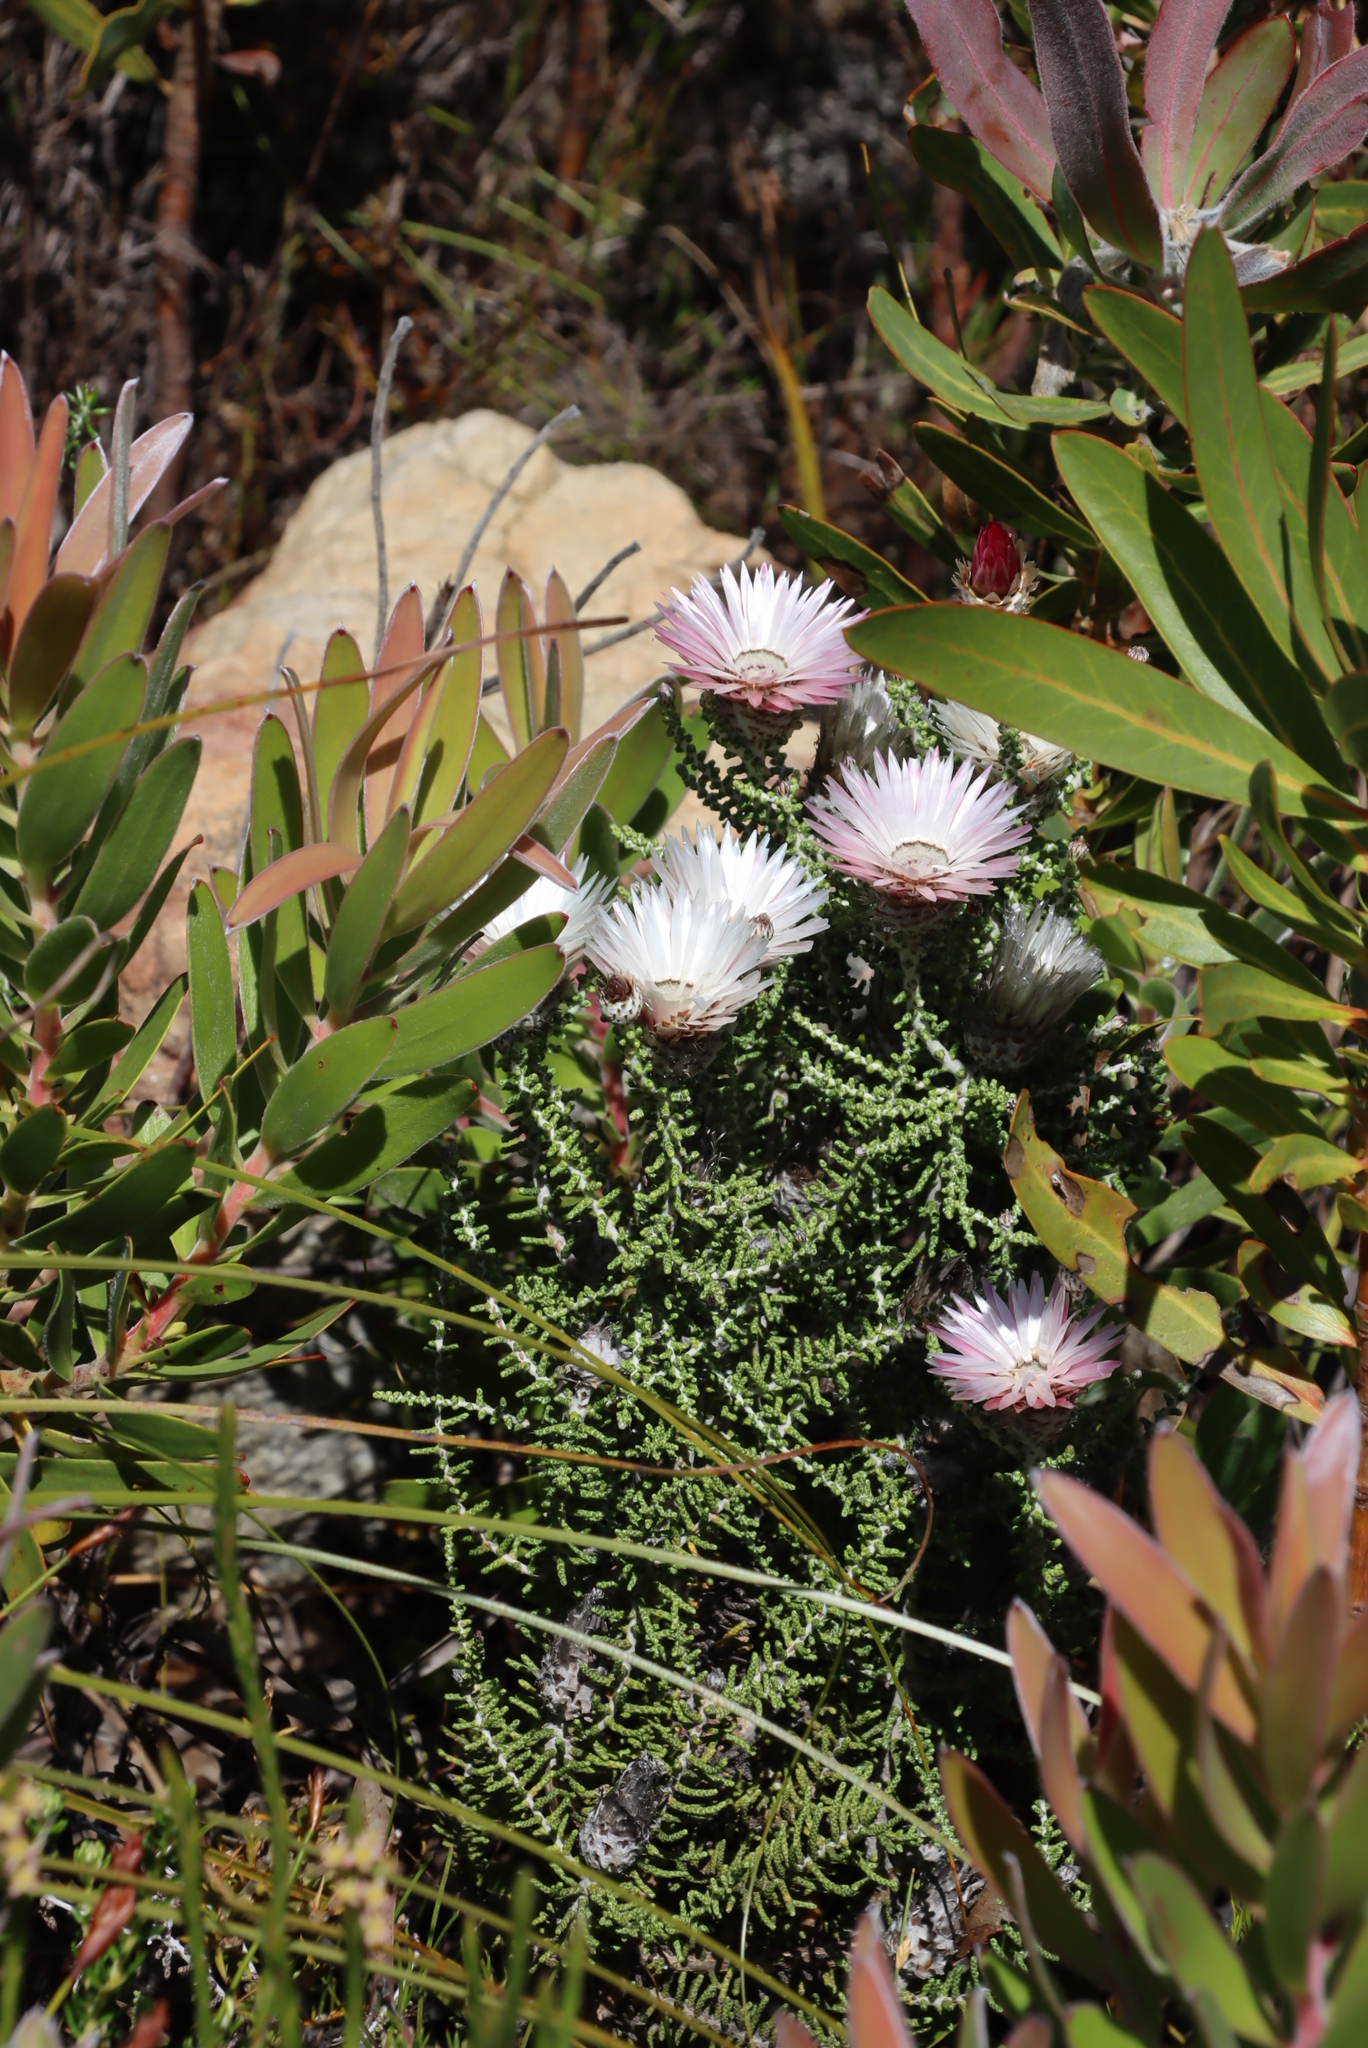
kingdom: Plantae
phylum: Tracheophyta
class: Magnoliopsida
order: Asterales
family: Asteraceae
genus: Phaenocoma
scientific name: Phaenocoma prolifera
